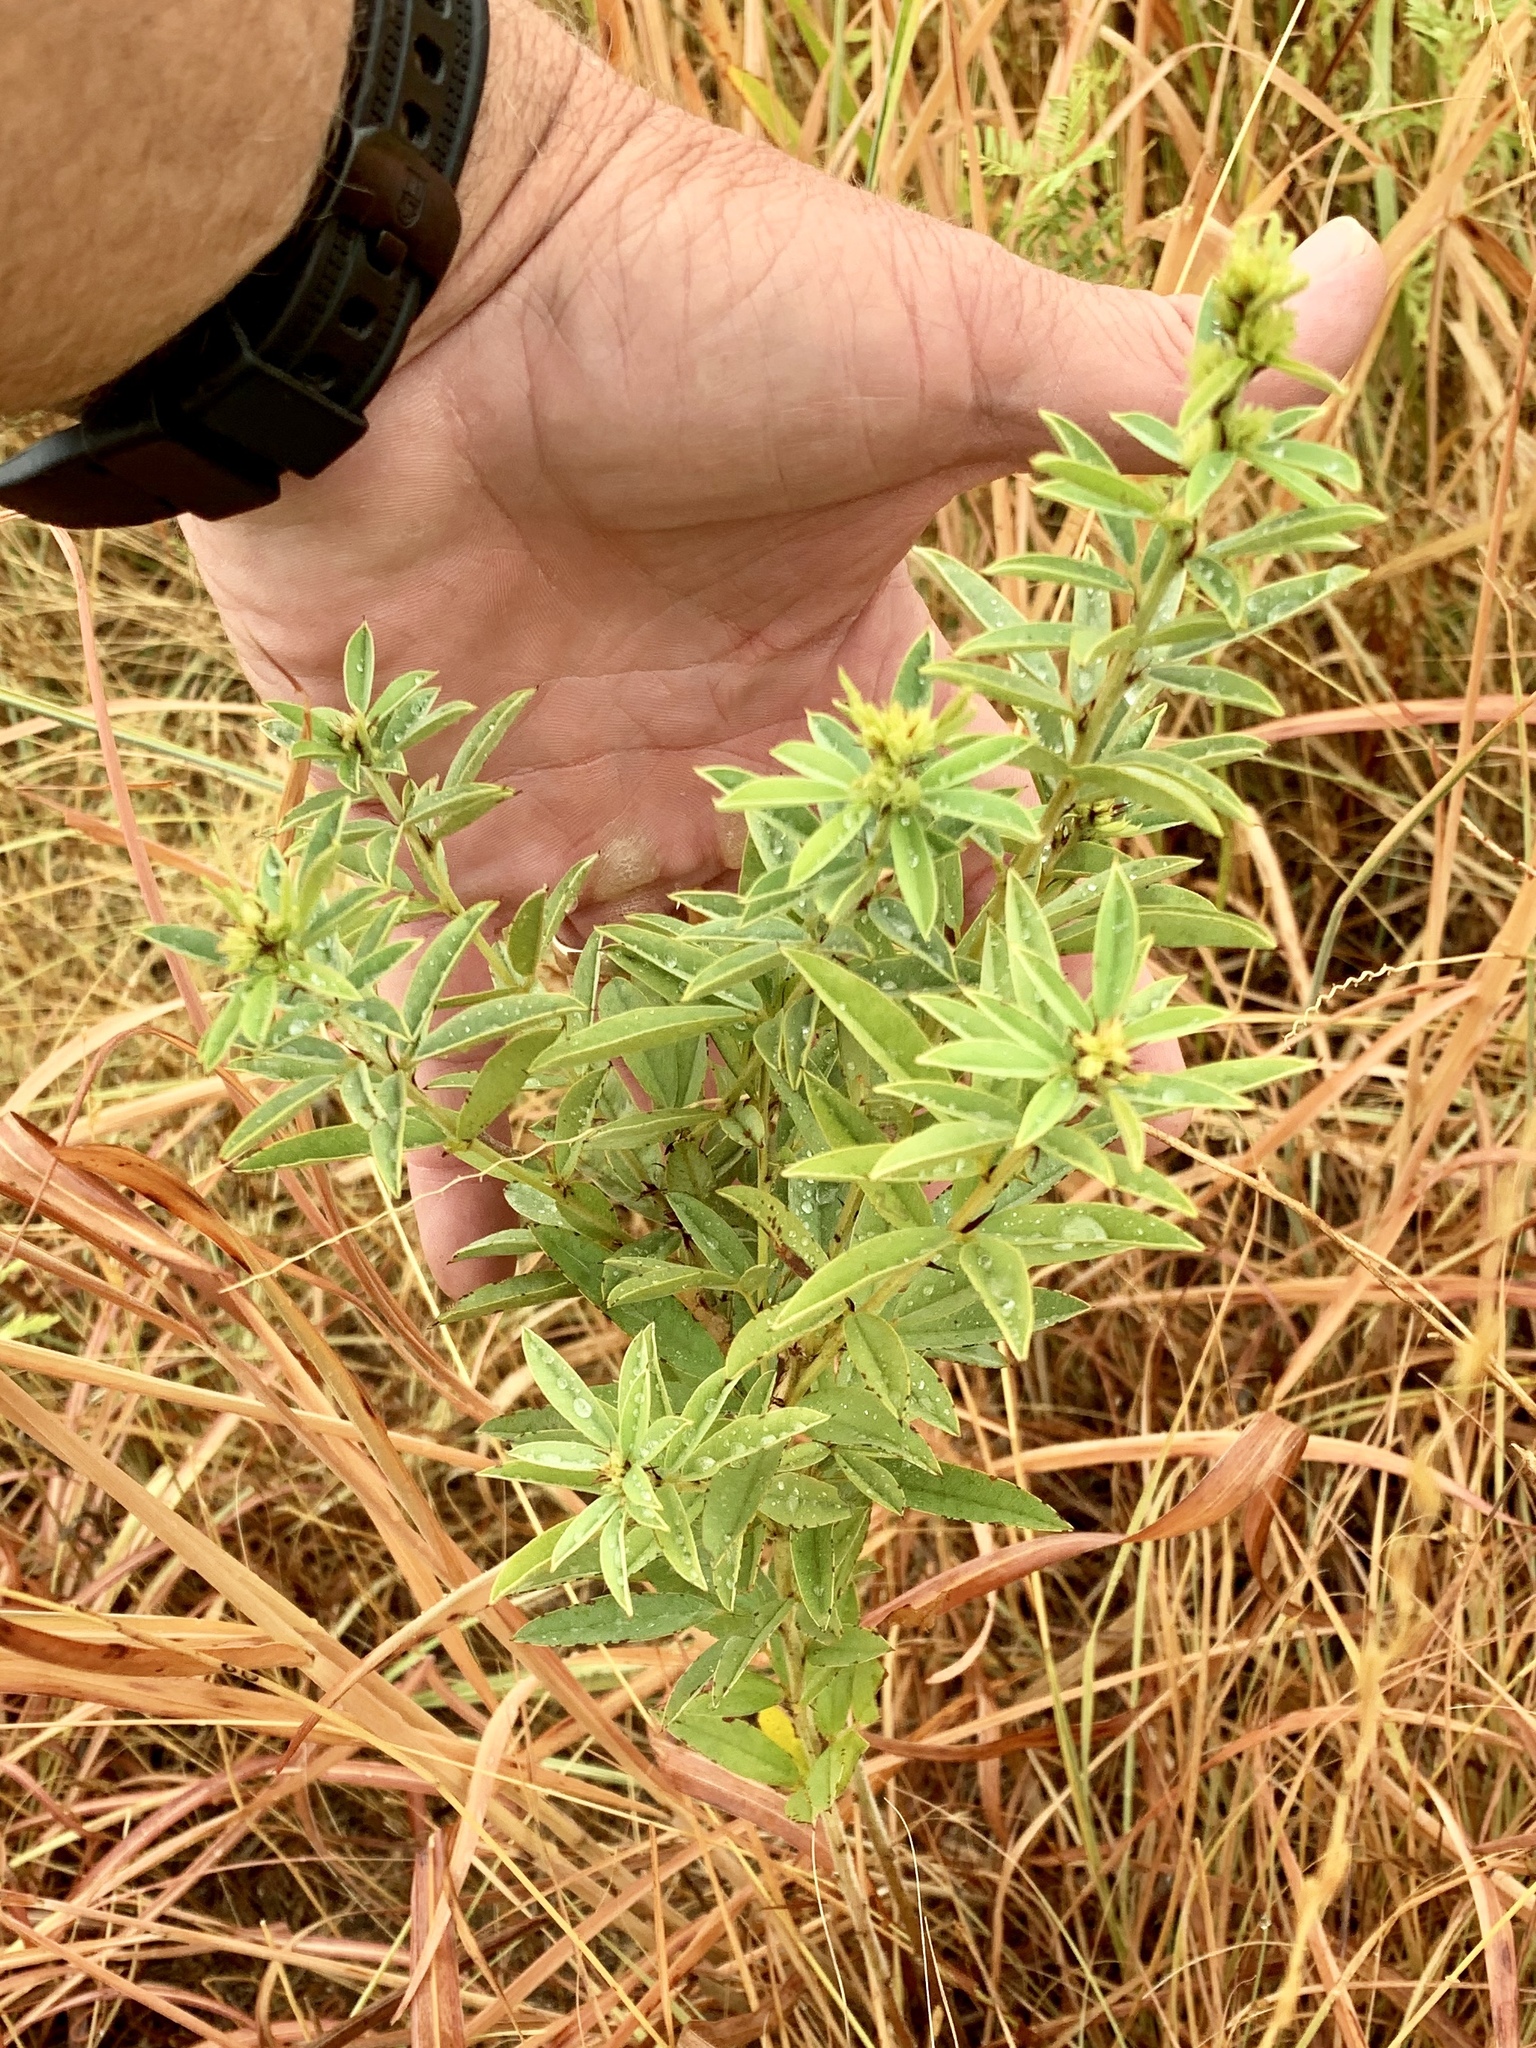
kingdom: Plantae
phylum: Tracheophyta
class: Magnoliopsida
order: Fabales
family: Fabaceae
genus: Lespedeza
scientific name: Lespedeza capitata
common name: Dusty clover
